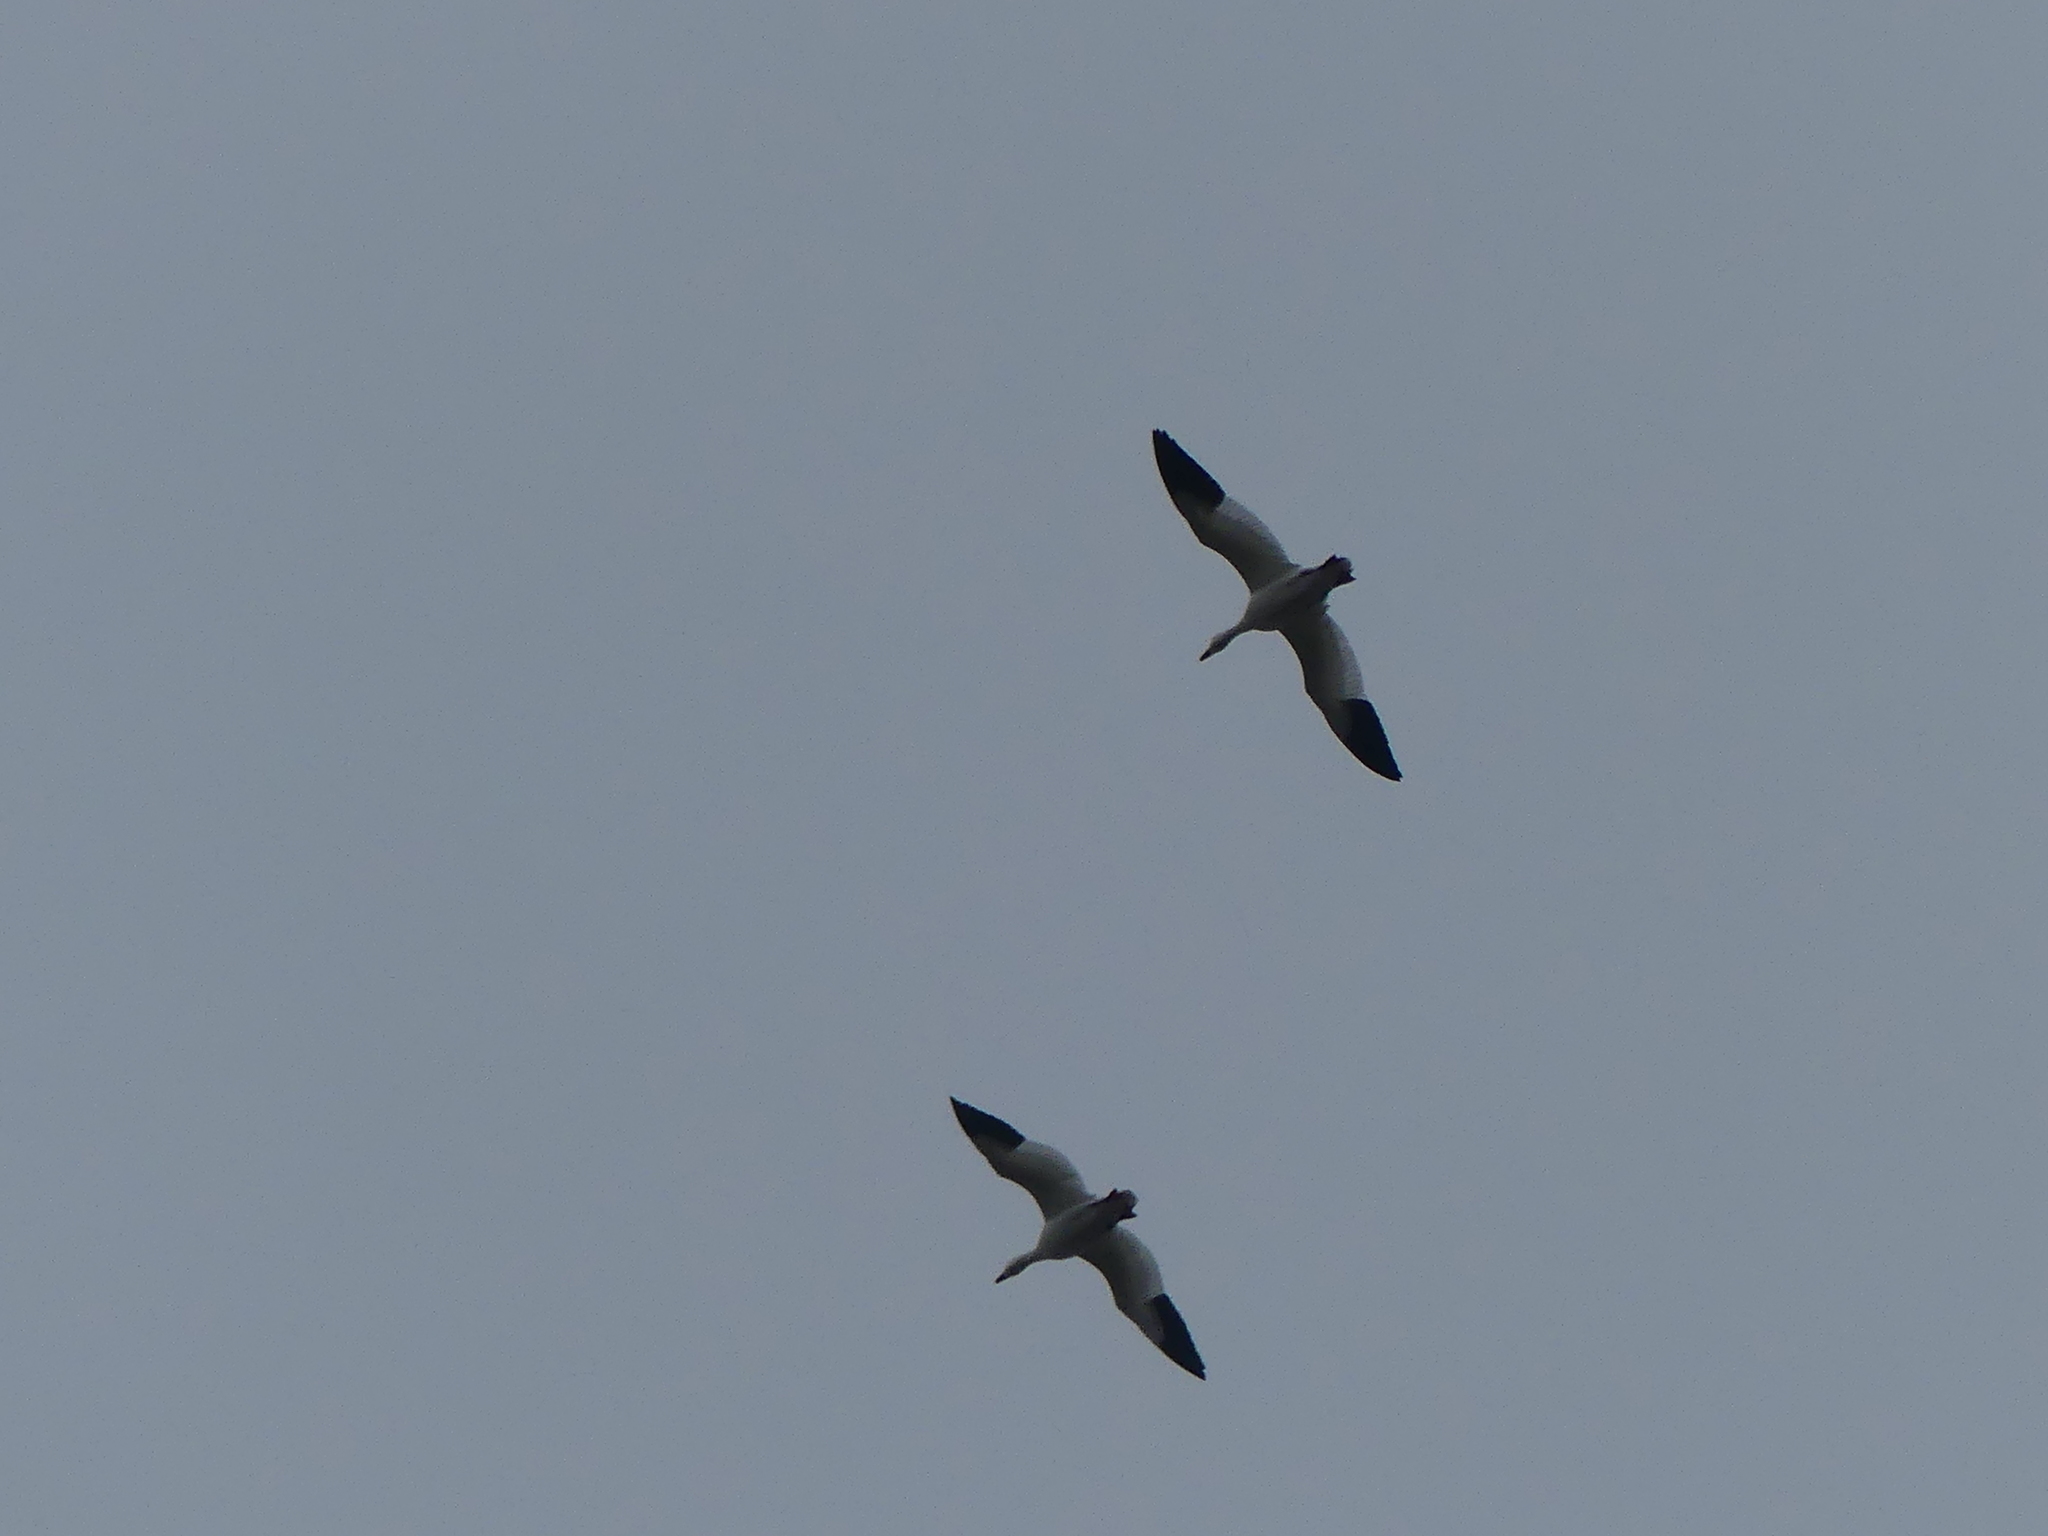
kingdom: Animalia
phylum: Chordata
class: Aves
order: Anseriformes
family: Anatidae
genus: Anser
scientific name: Anser caerulescens
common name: Snow goose
